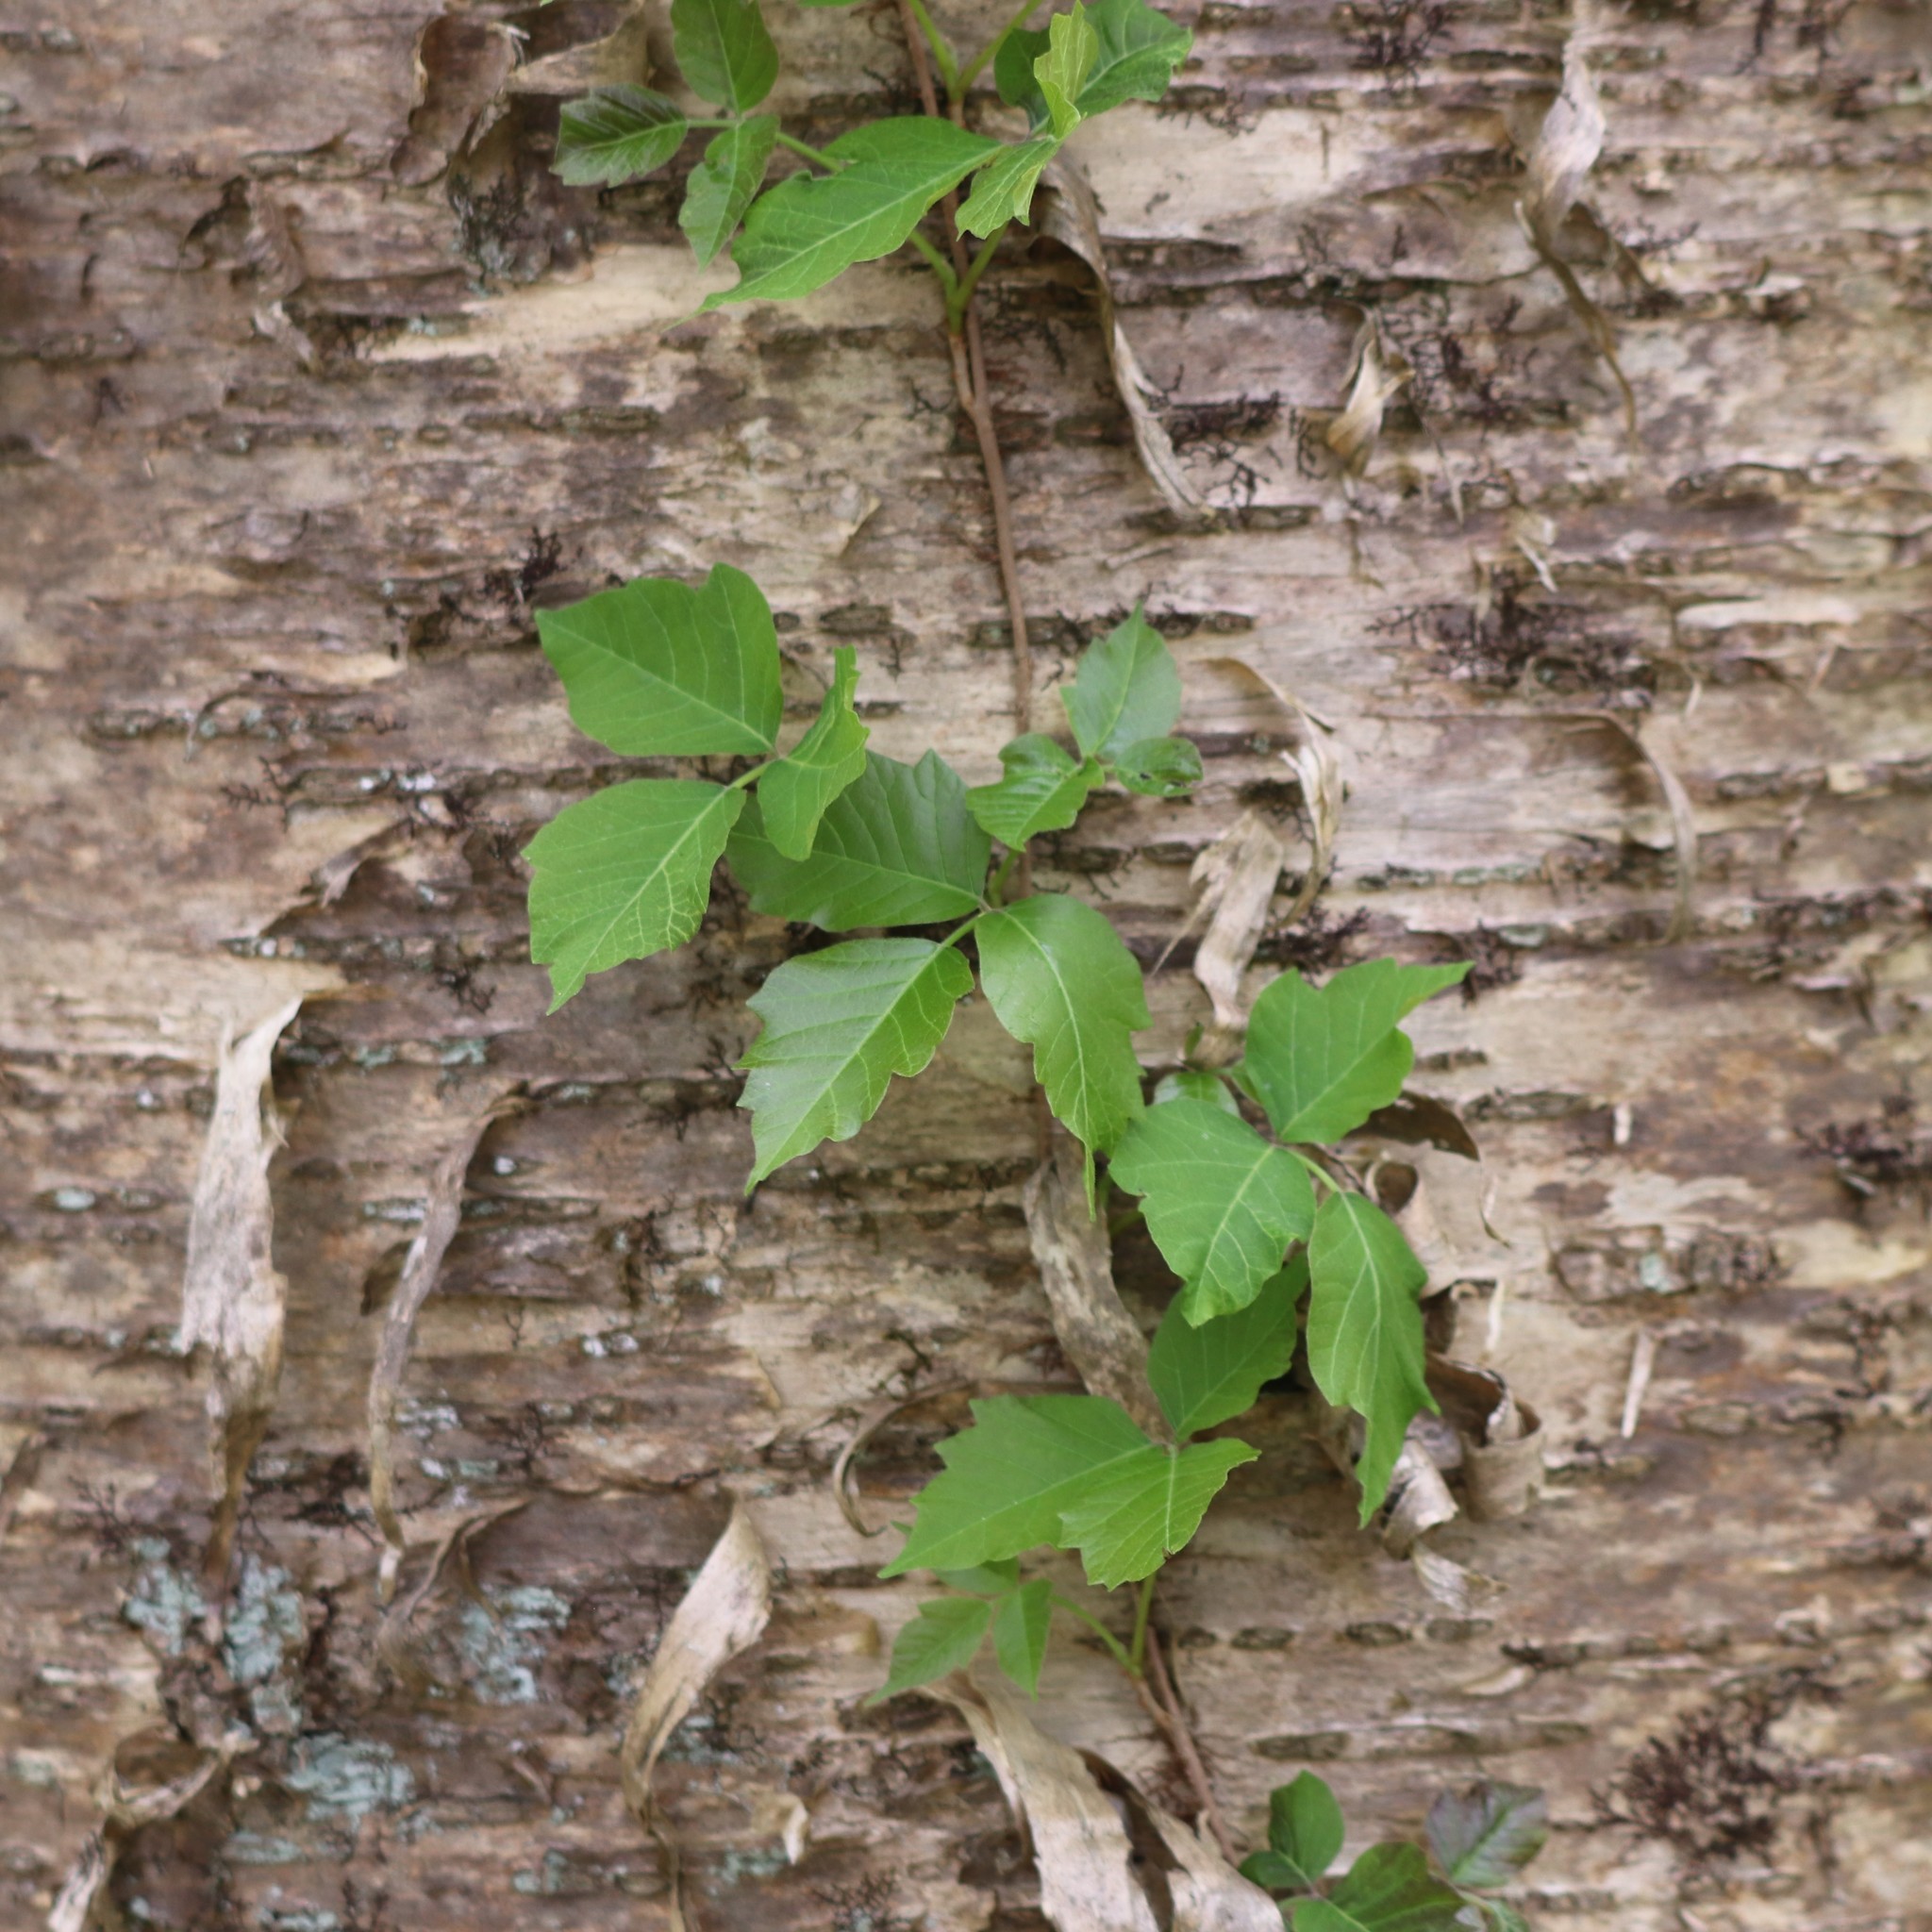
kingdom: Plantae
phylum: Tracheophyta
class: Magnoliopsida
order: Sapindales
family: Anacardiaceae
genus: Toxicodendron
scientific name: Toxicodendron radicans
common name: Poison ivy
